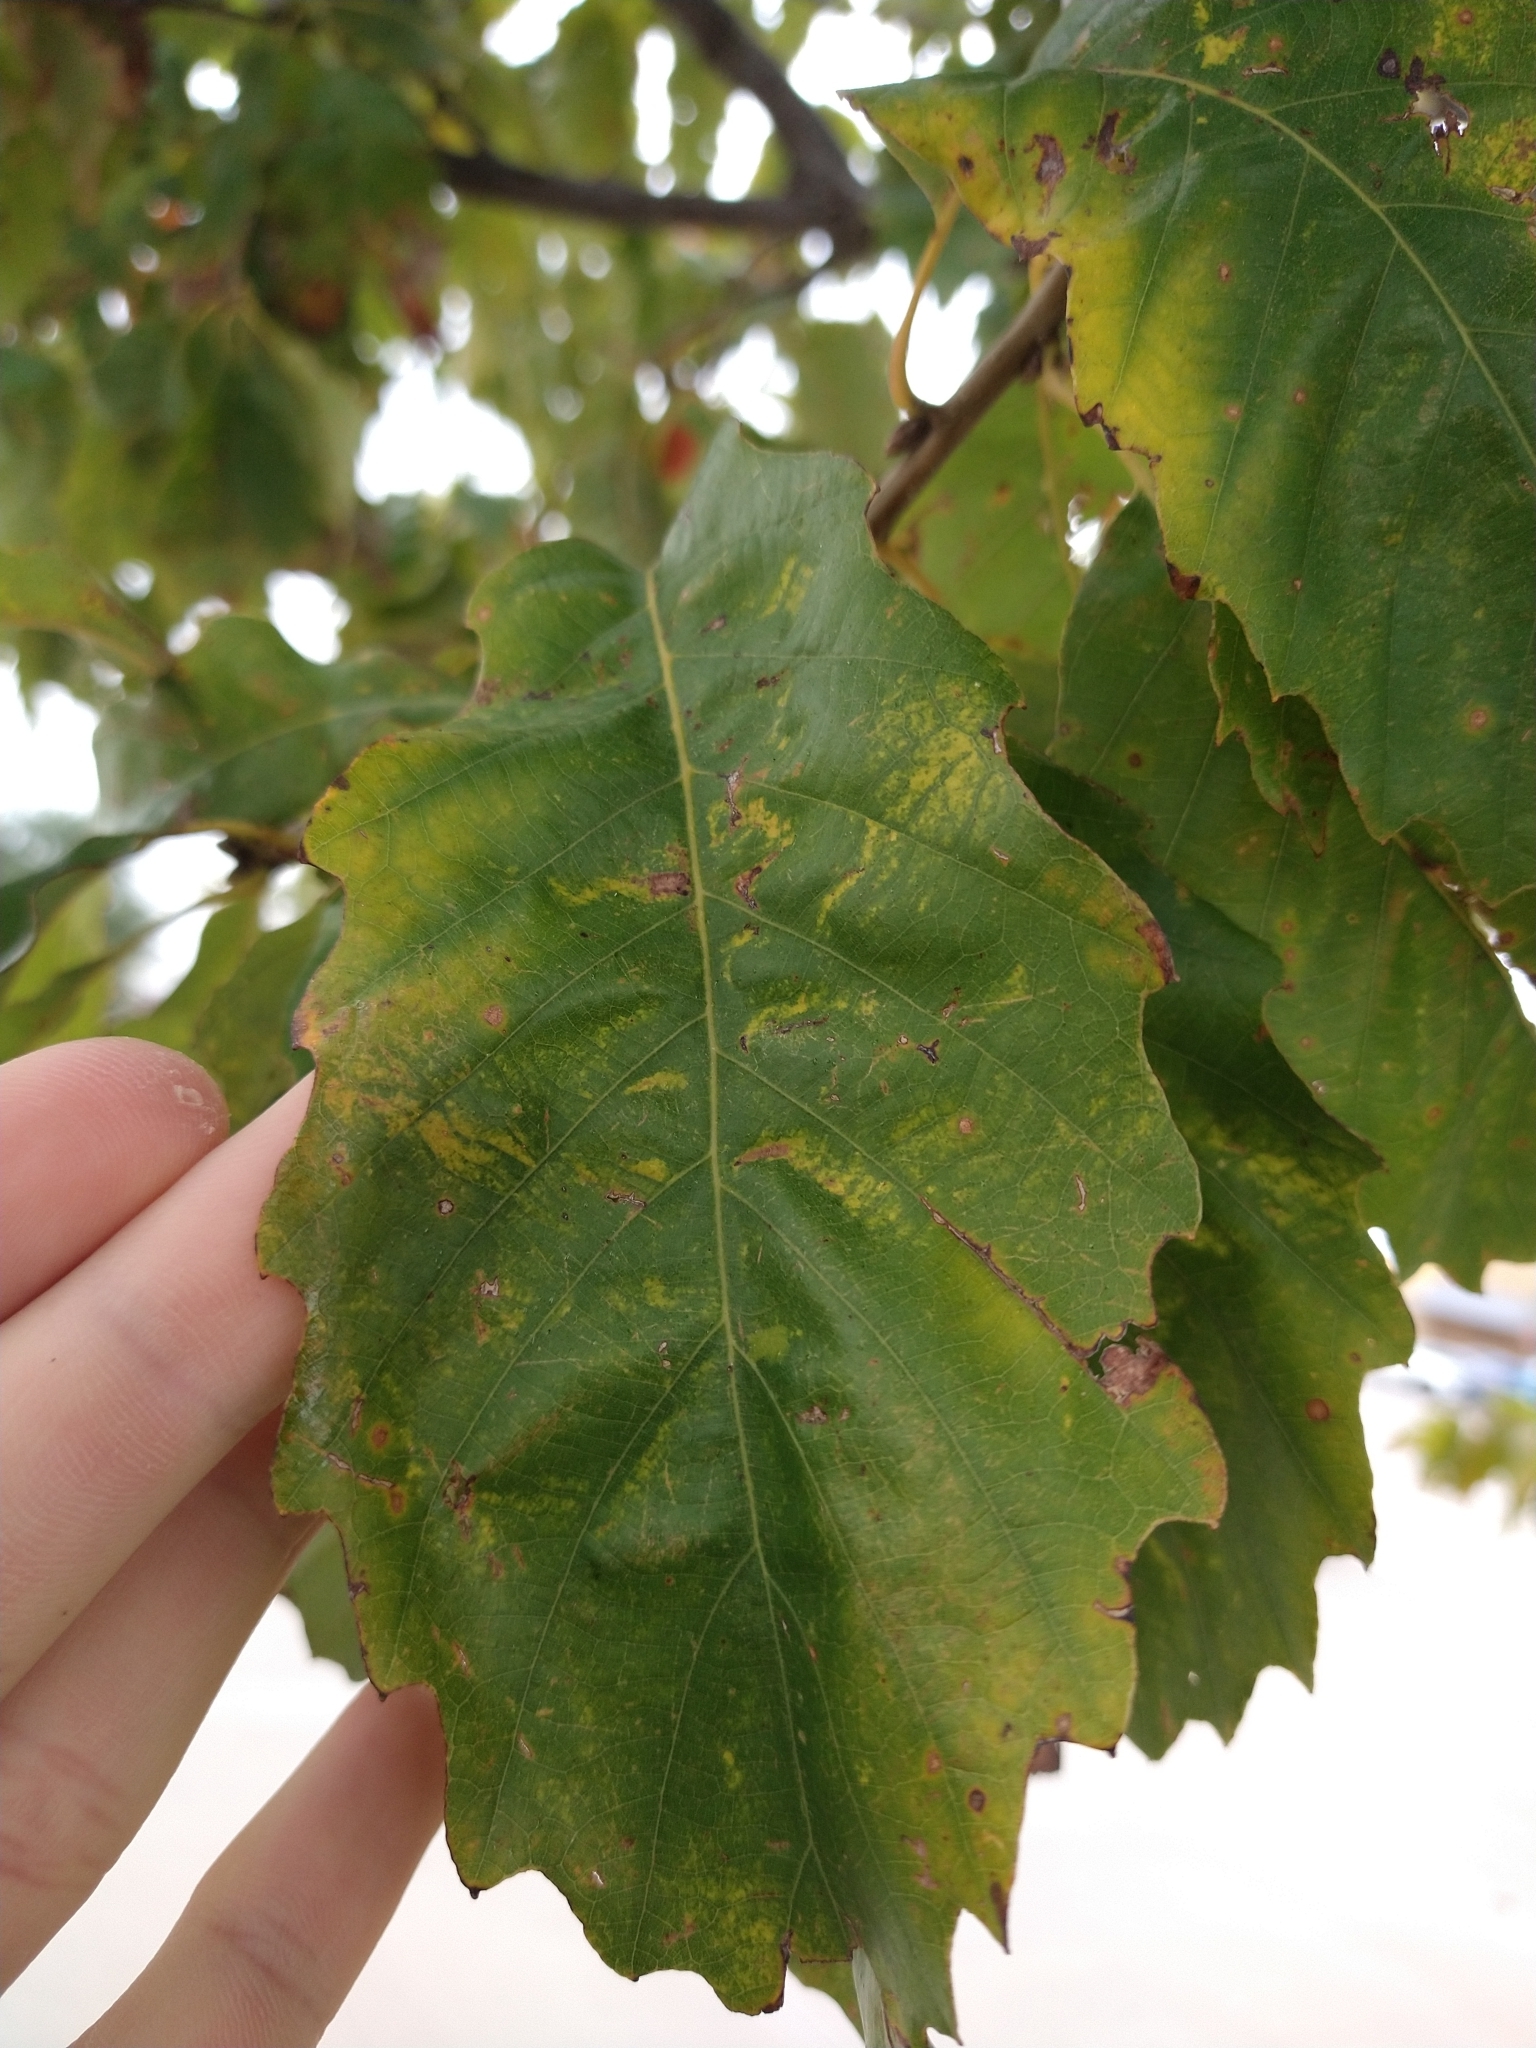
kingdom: Plantae
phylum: Tracheophyta
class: Magnoliopsida
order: Fagales
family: Fagaceae
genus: Quercus
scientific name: Quercus muehlenbergii
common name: Chinkapin oak
